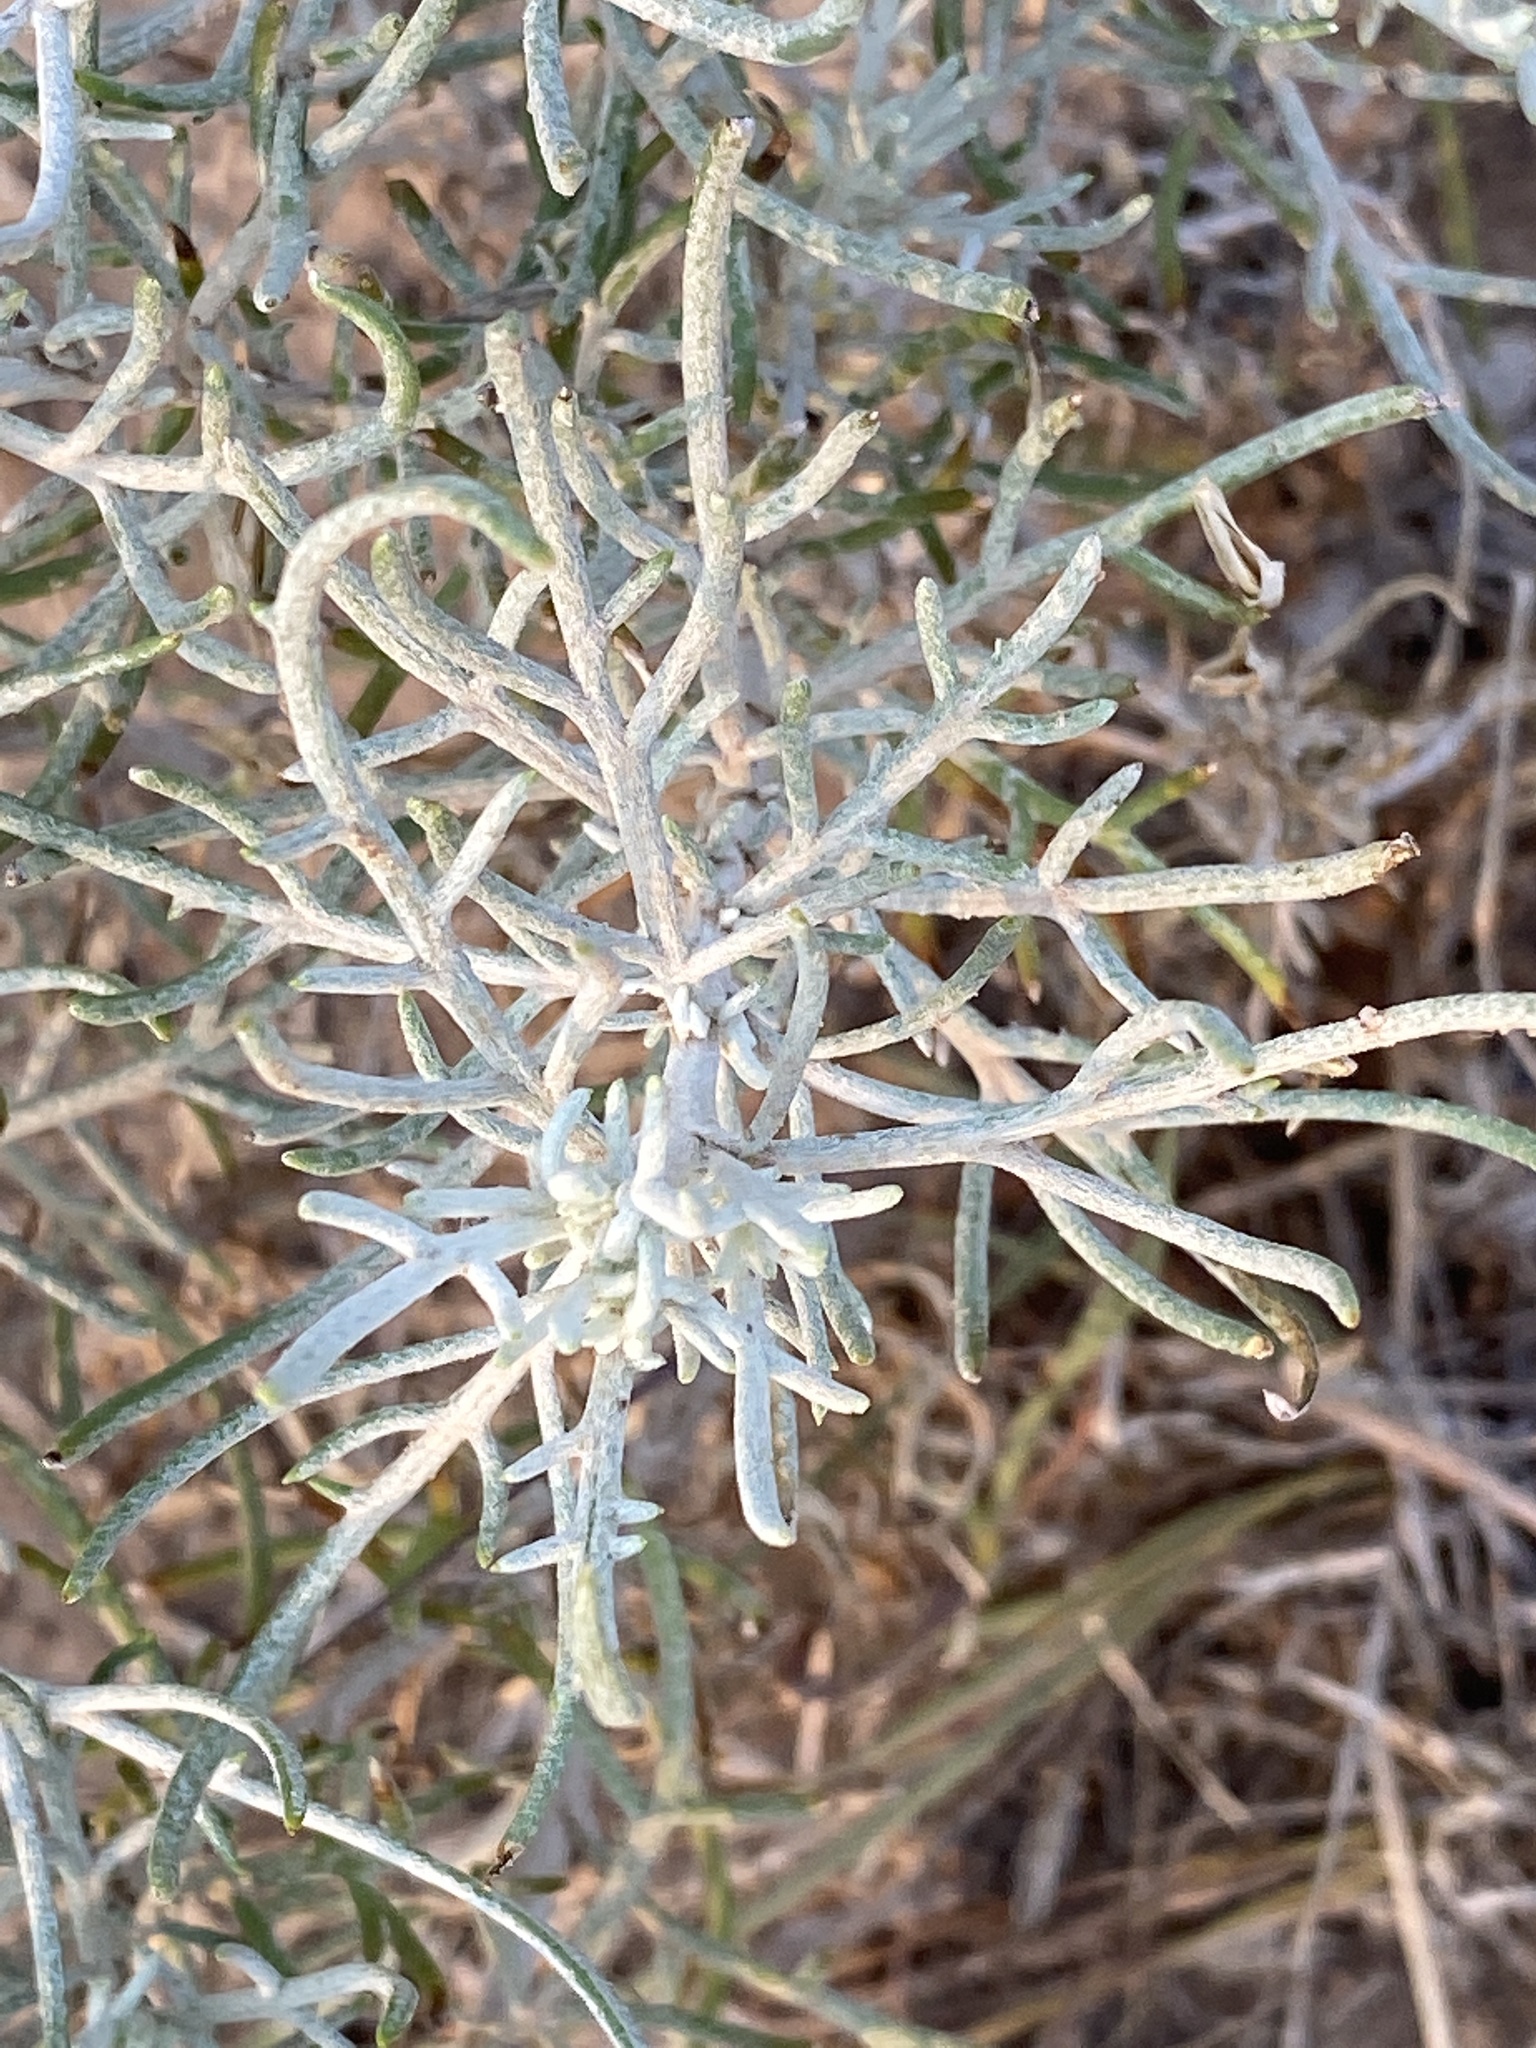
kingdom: Plantae
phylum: Tracheophyta
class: Magnoliopsida
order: Asterales
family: Asteraceae
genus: Senecio
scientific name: Senecio flaccidus
